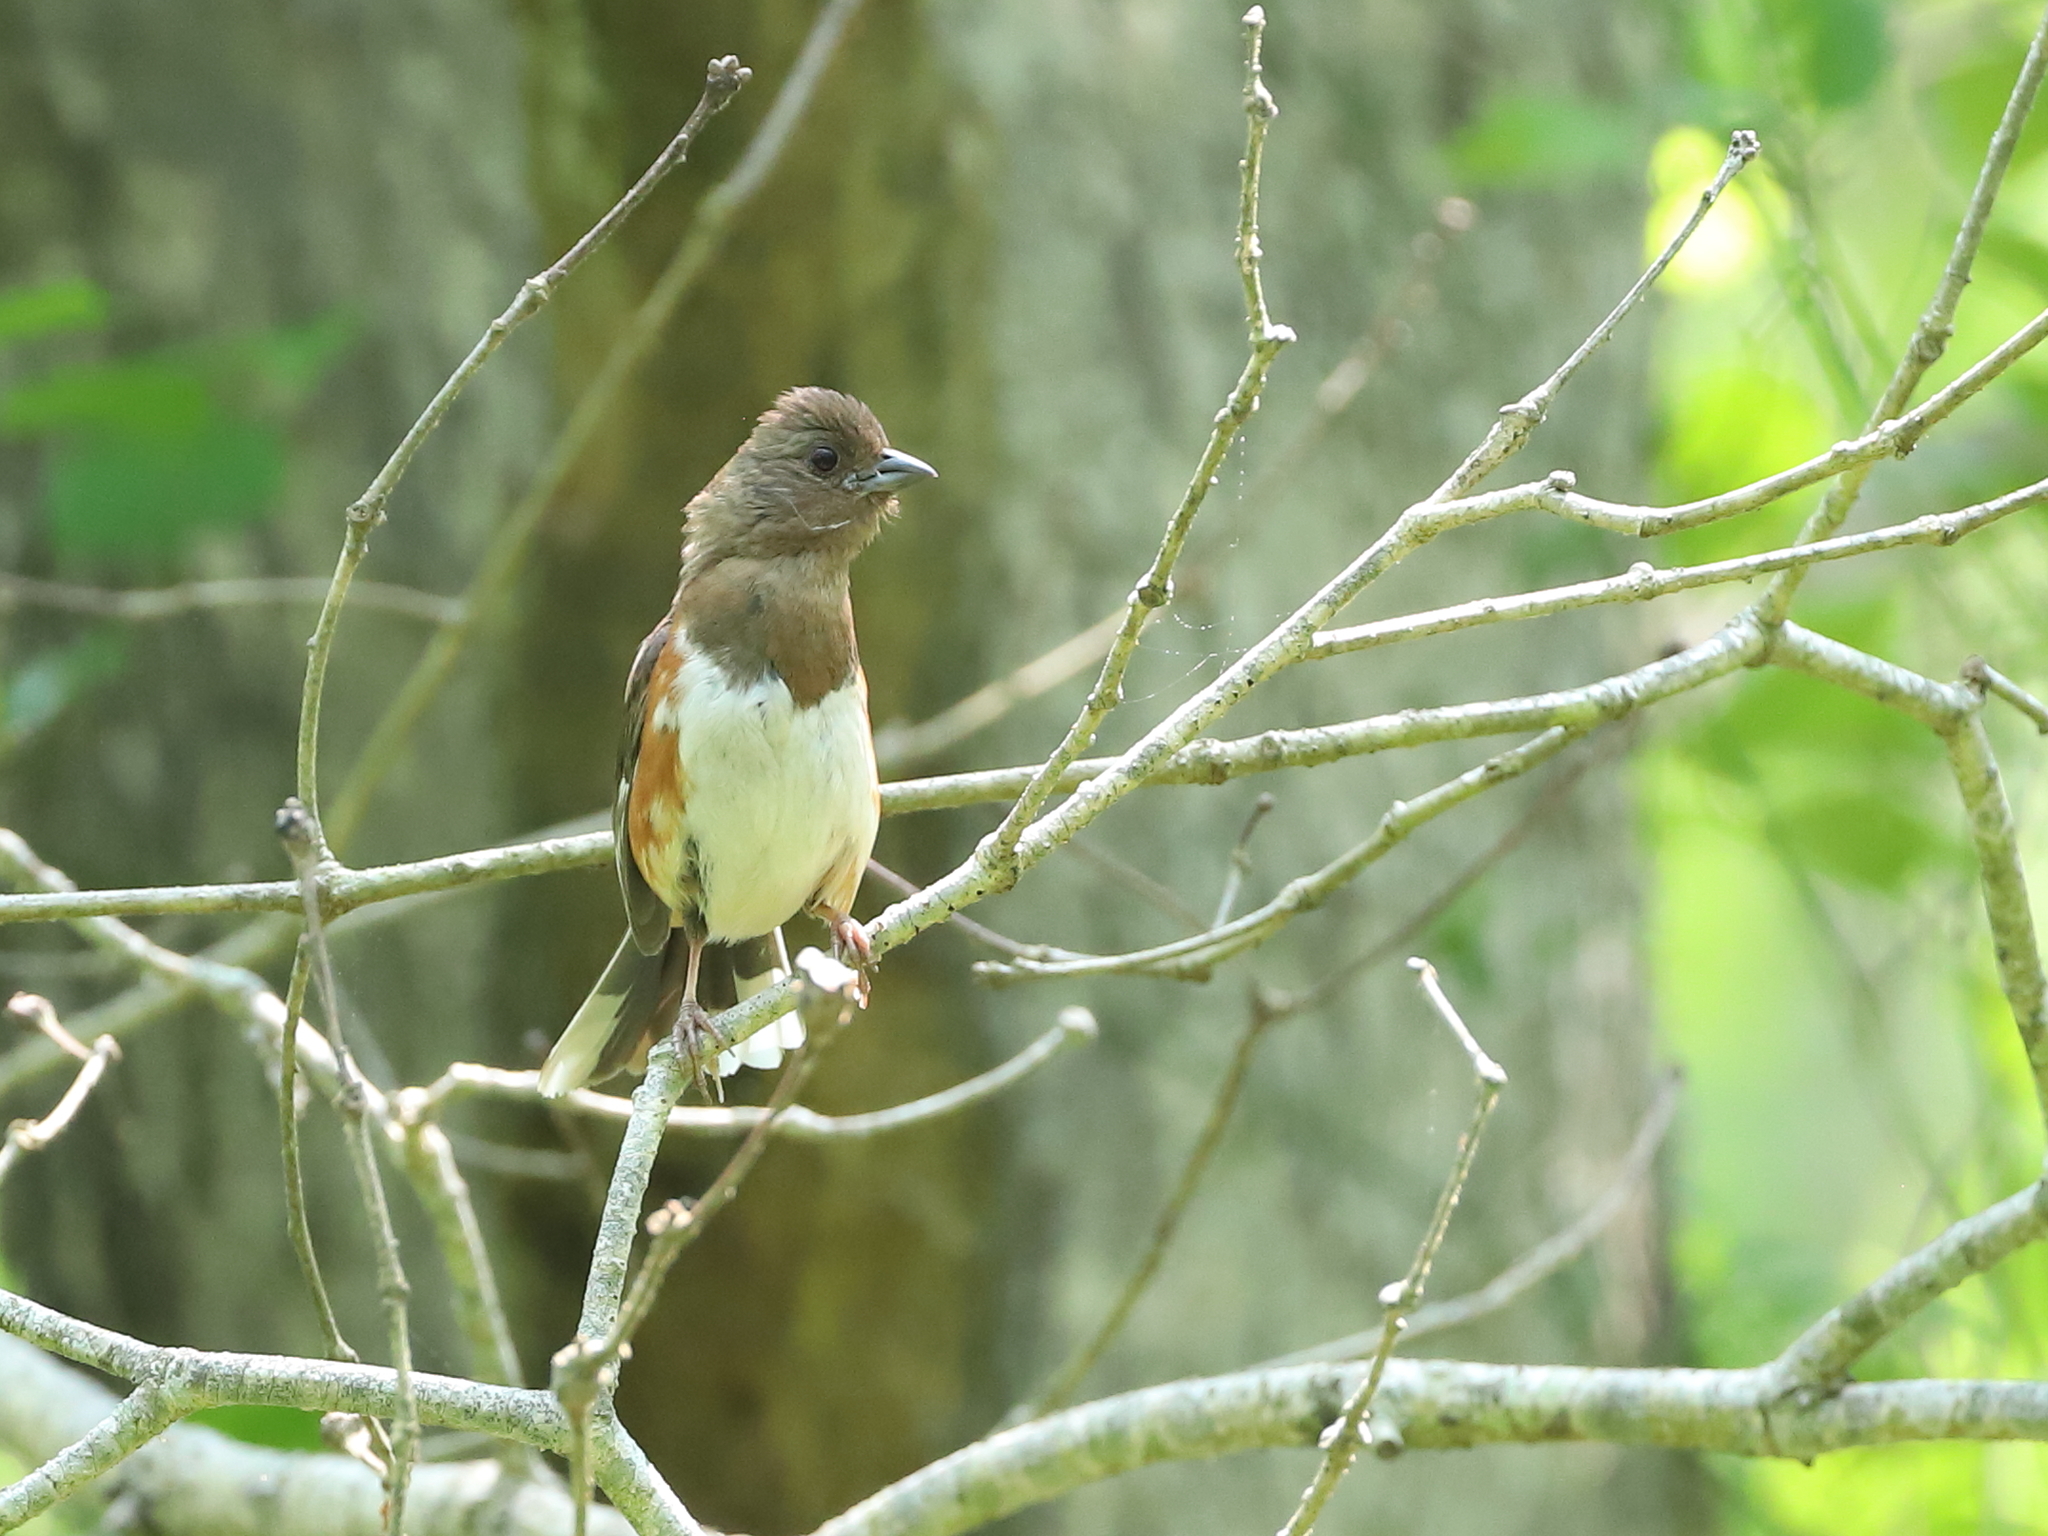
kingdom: Animalia
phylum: Chordata
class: Aves
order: Passeriformes
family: Passerellidae
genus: Pipilo
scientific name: Pipilo erythrophthalmus
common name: Eastern towhee
